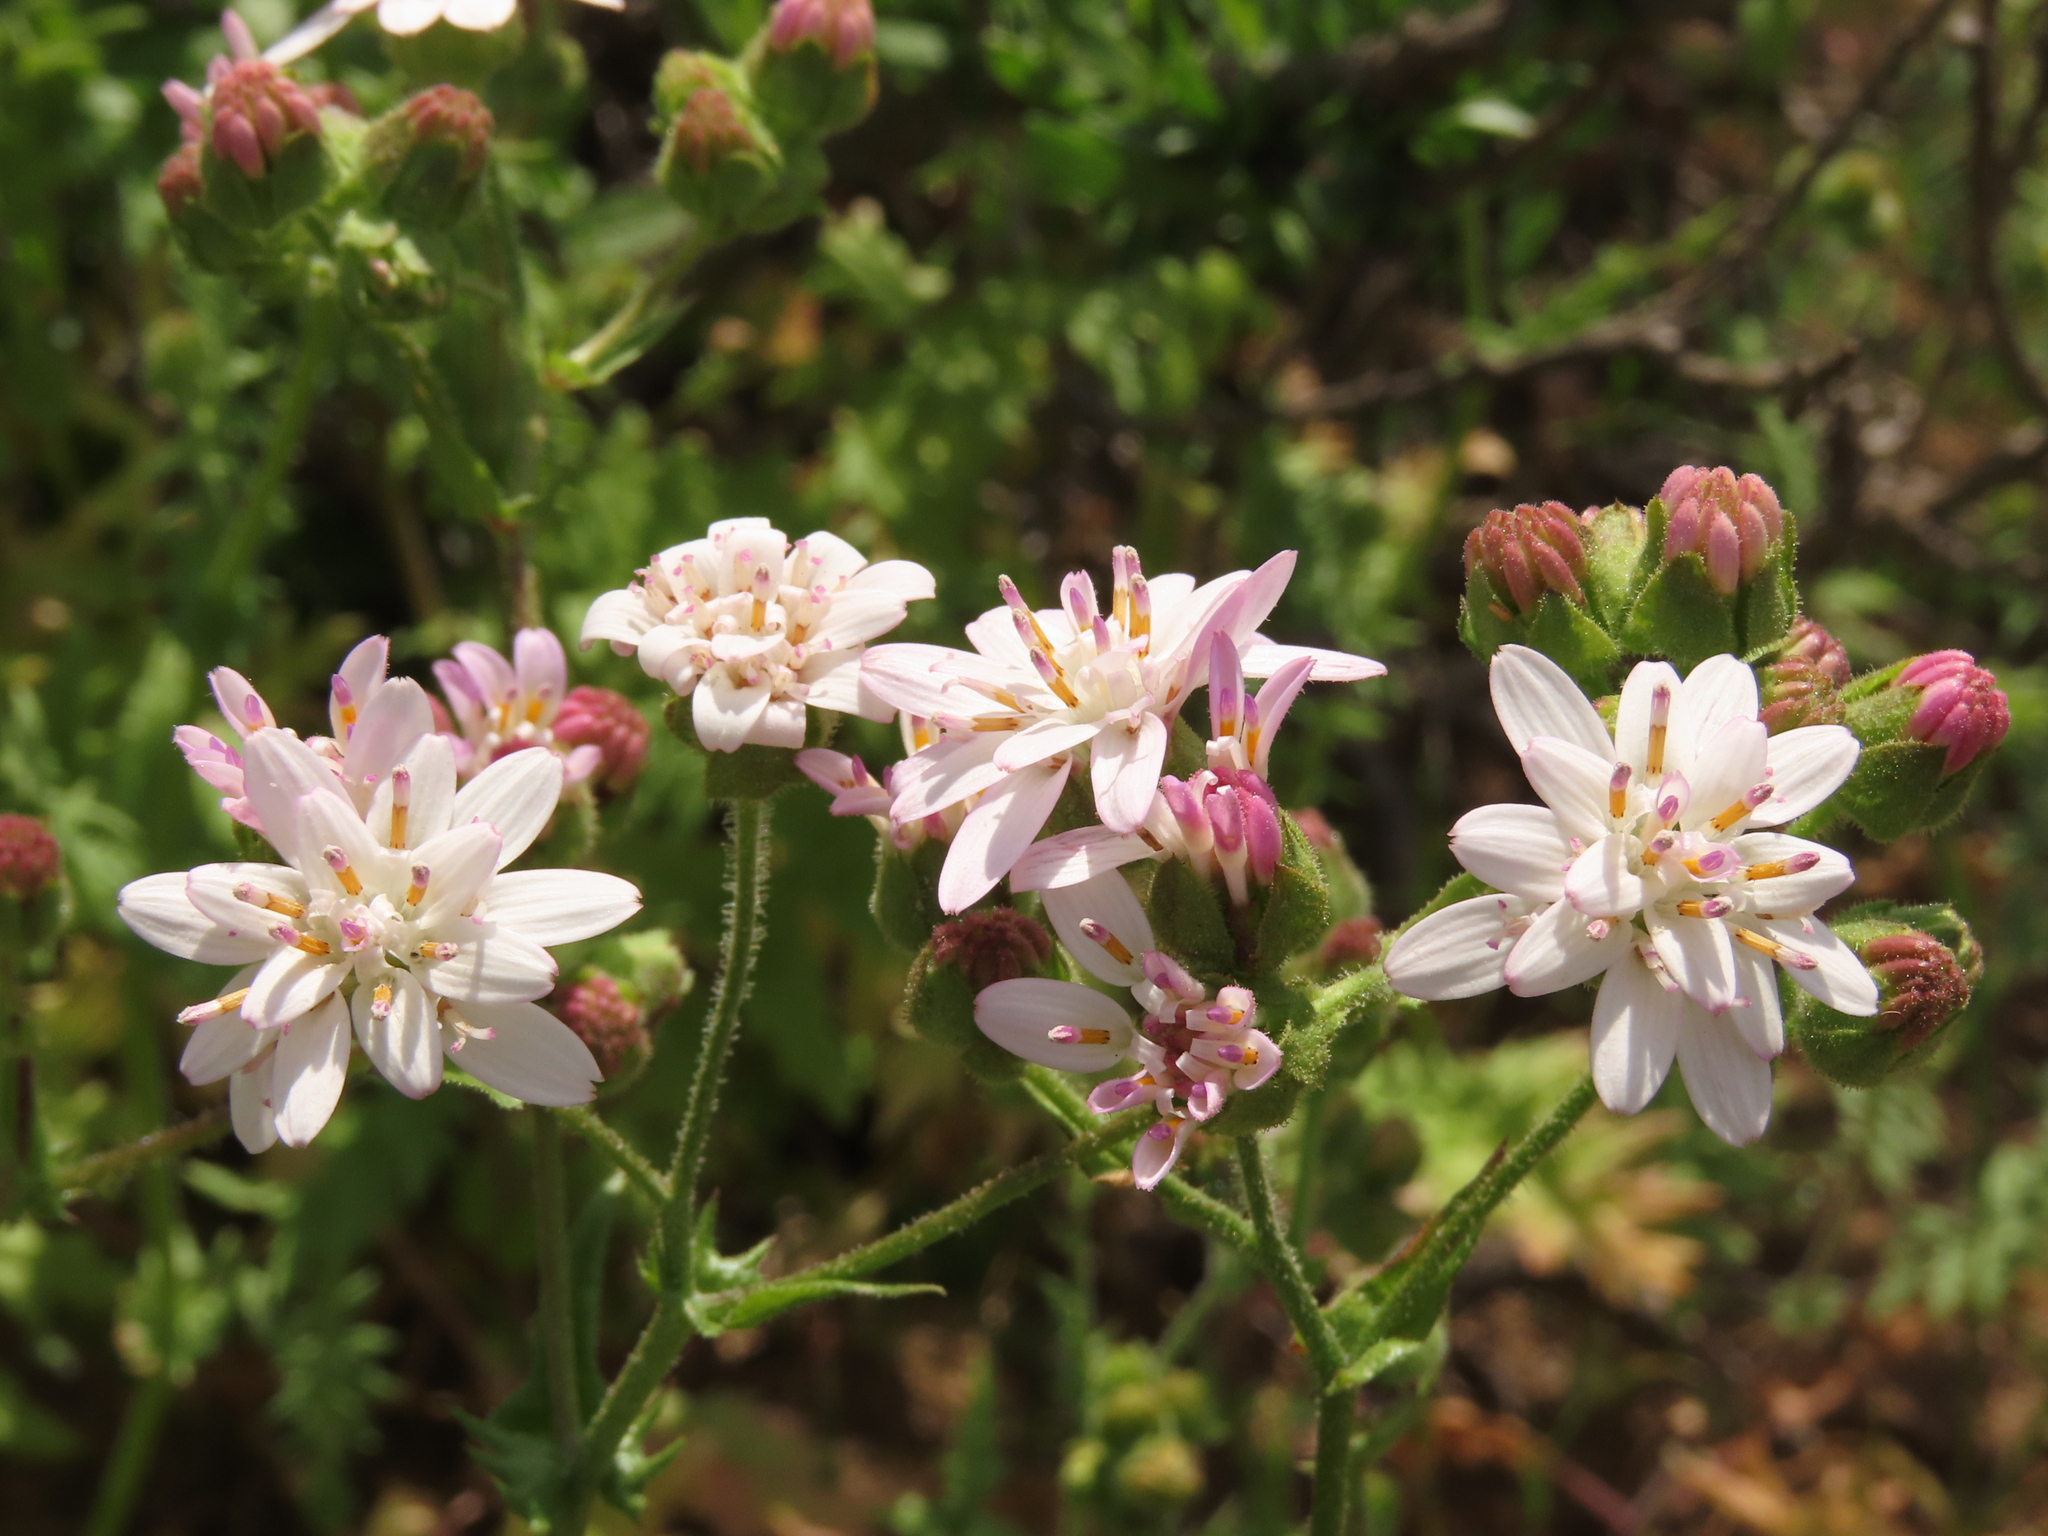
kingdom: Plantae
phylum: Tracheophyta
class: Magnoliopsida
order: Asterales
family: Asteraceae
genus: Moscharia
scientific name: Moscharia pinnatifida
